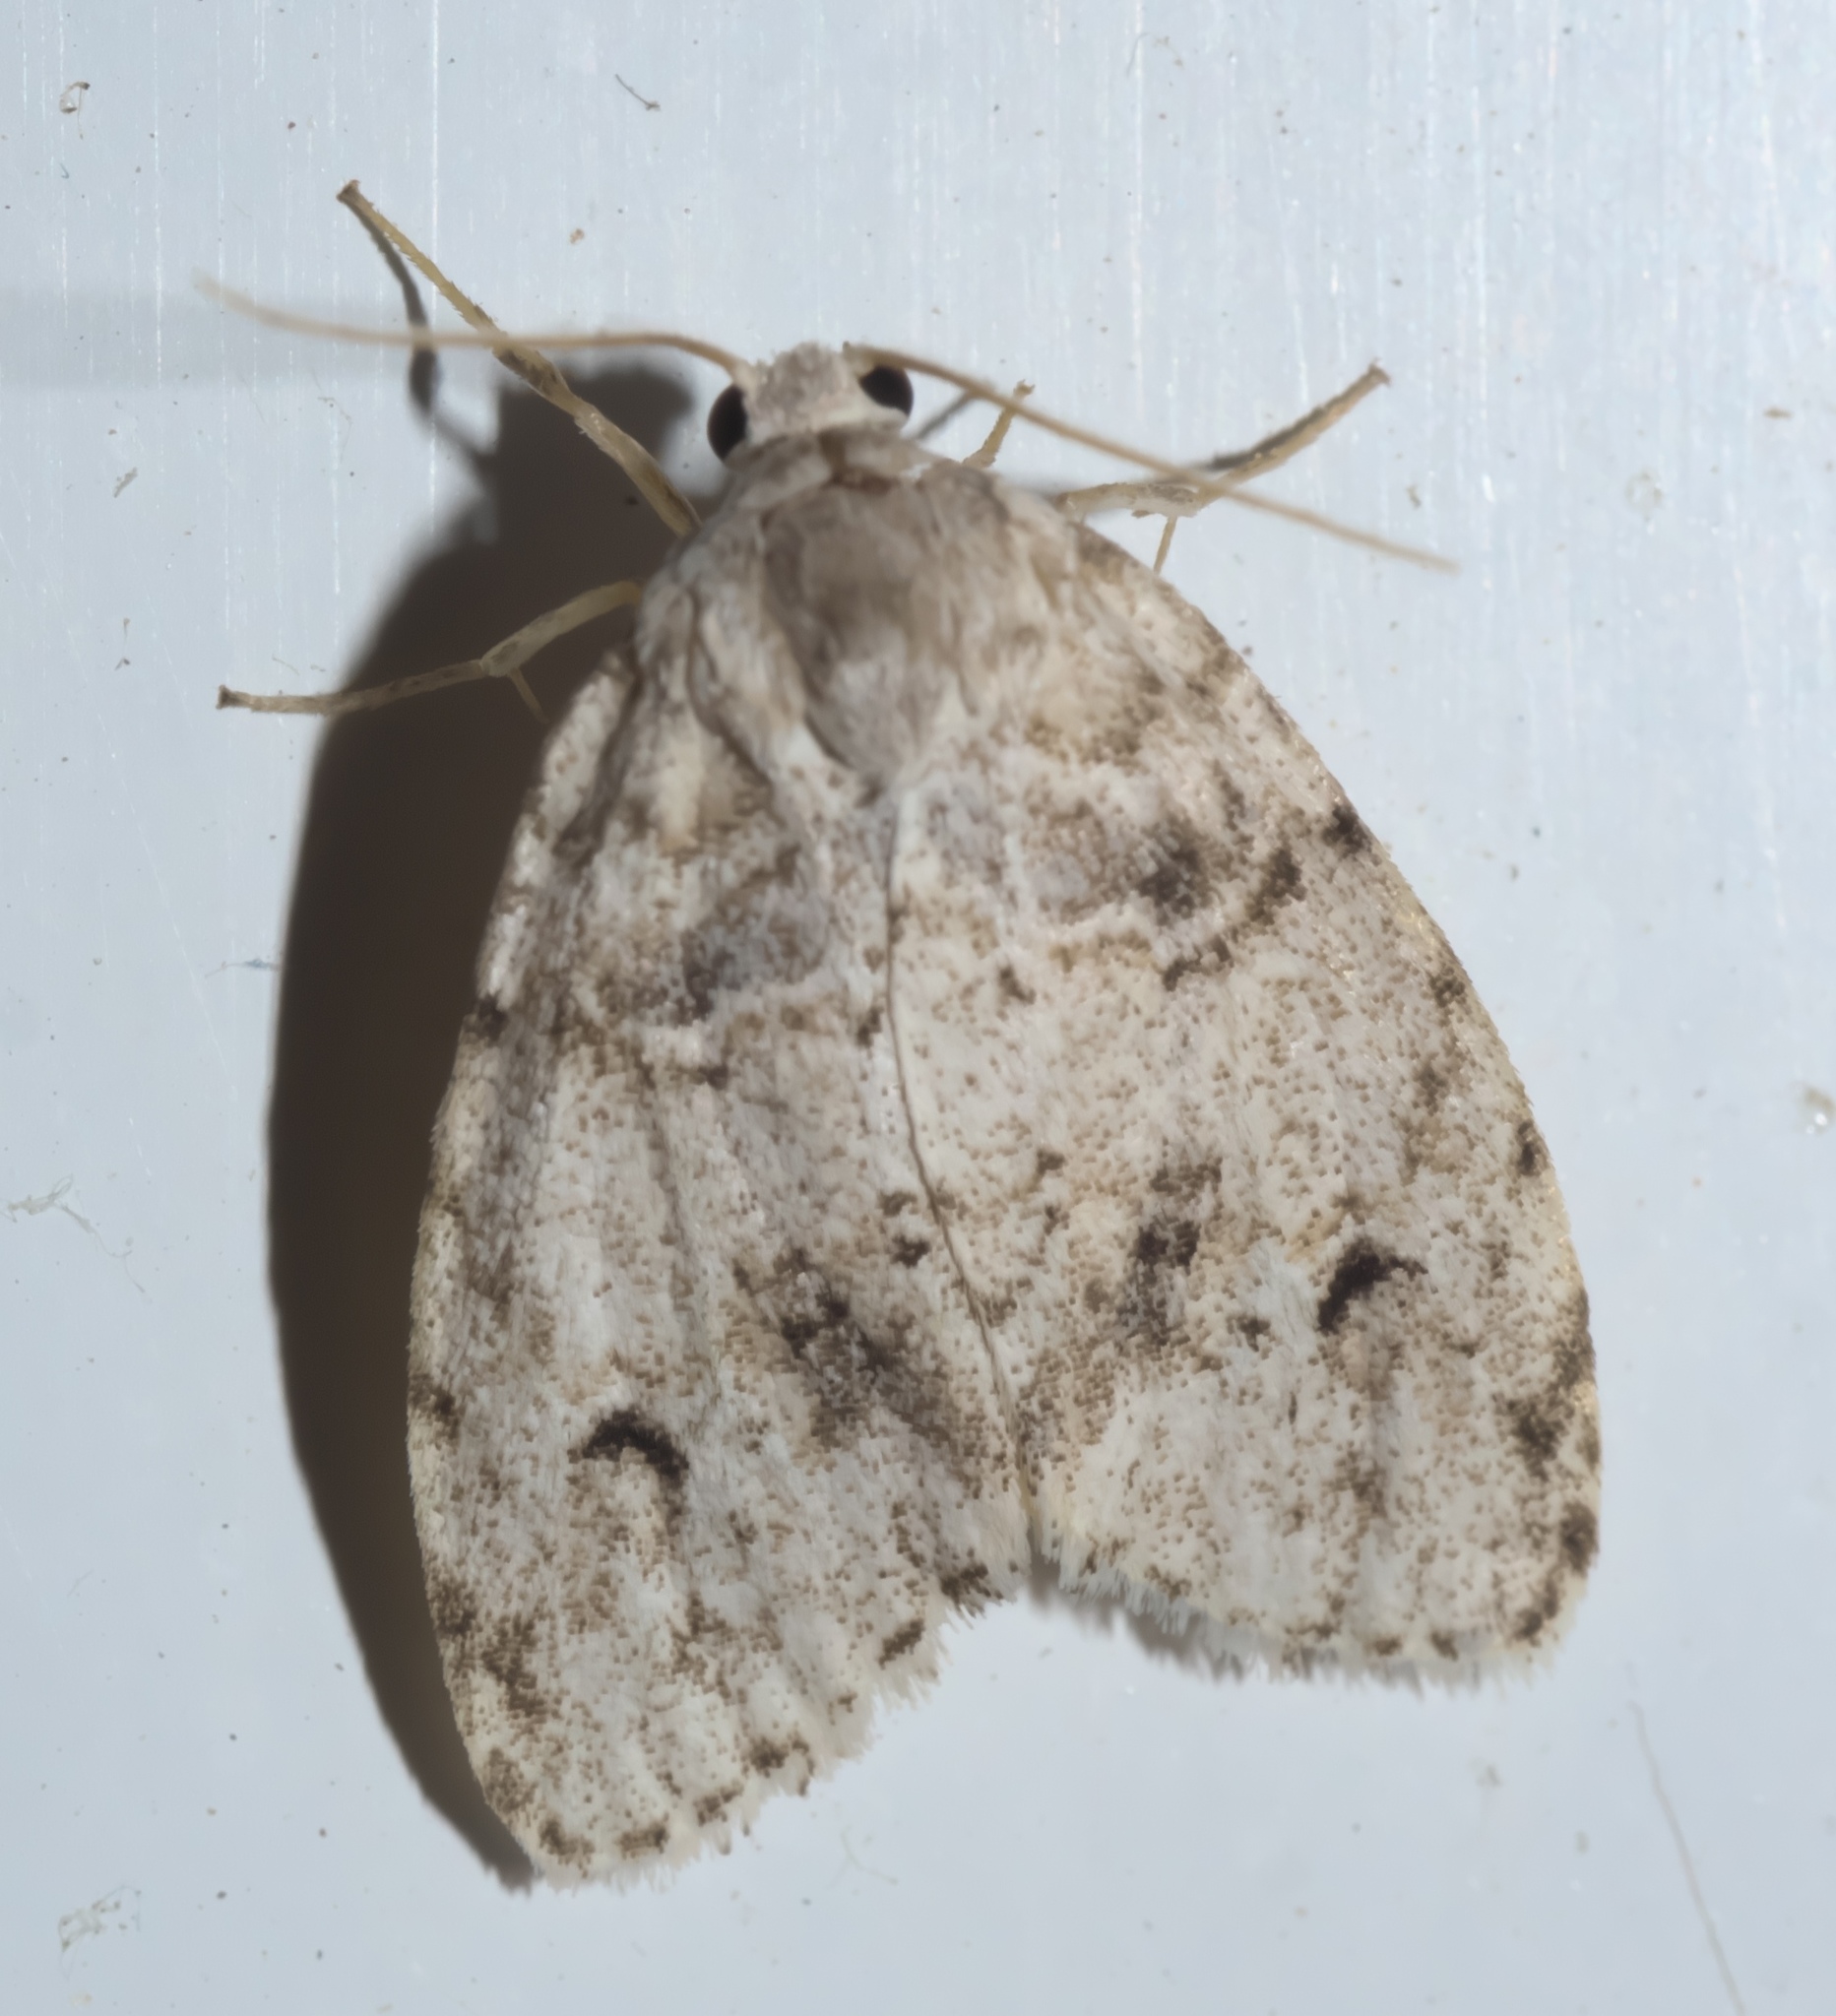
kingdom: Animalia
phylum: Arthropoda
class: Insecta
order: Lepidoptera
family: Erebidae
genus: Clemensia
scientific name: Clemensia albata
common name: Little white lichen moth
